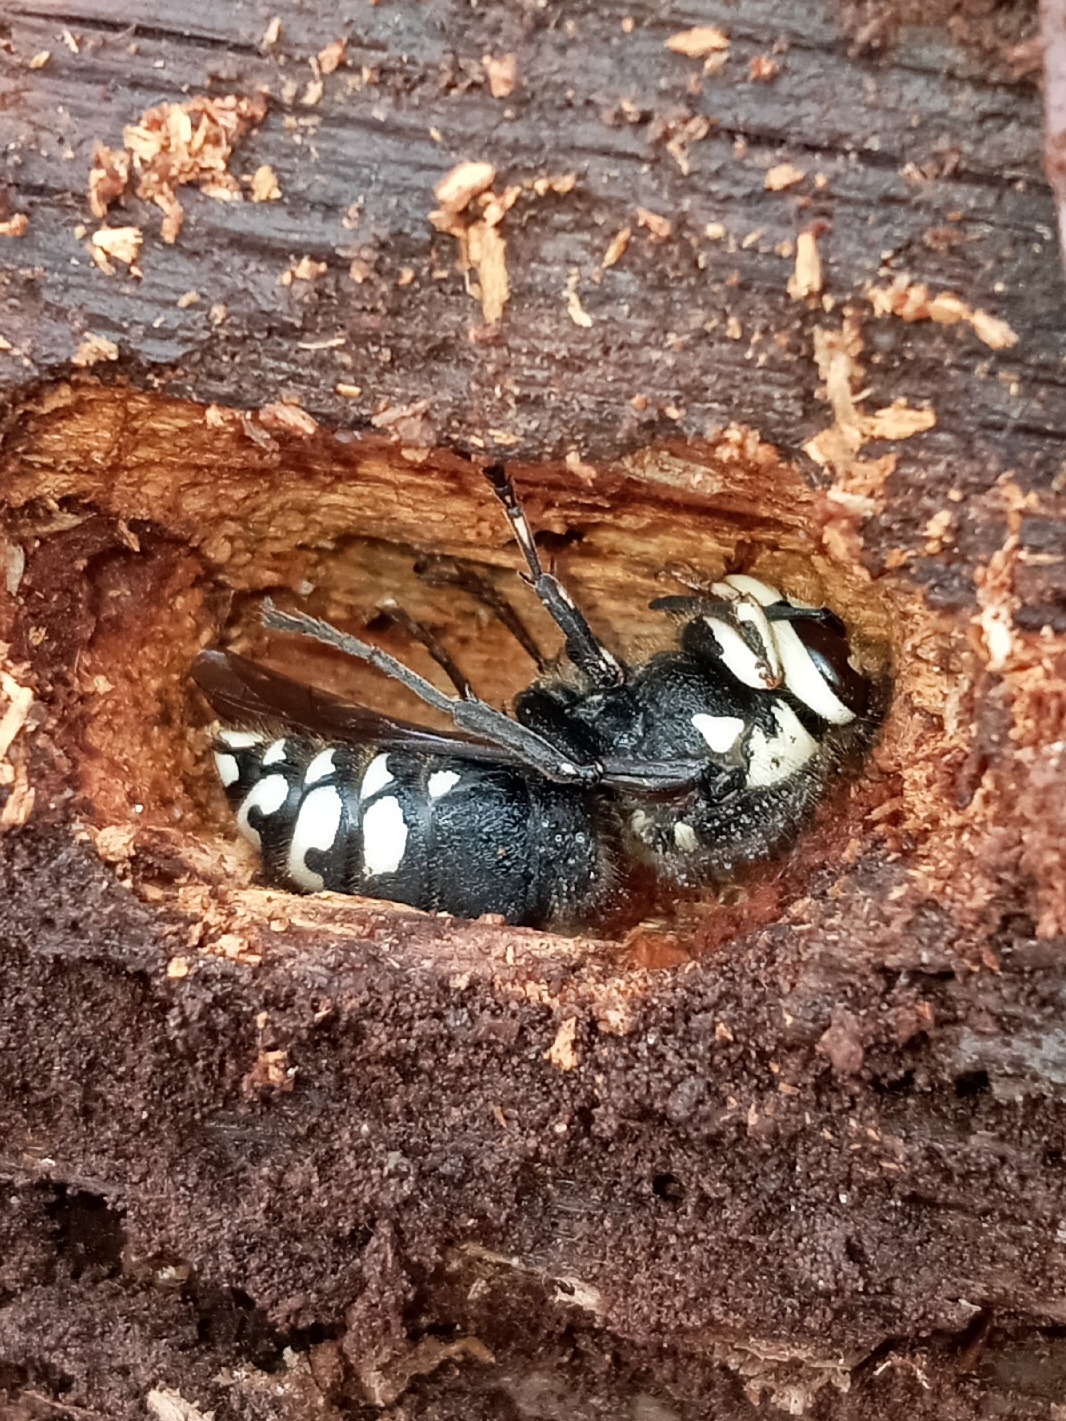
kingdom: Animalia
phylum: Arthropoda
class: Insecta
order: Hymenoptera
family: Vespidae
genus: Dolichovespula
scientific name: Dolichovespula maculata
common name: Bald-faced hornet
